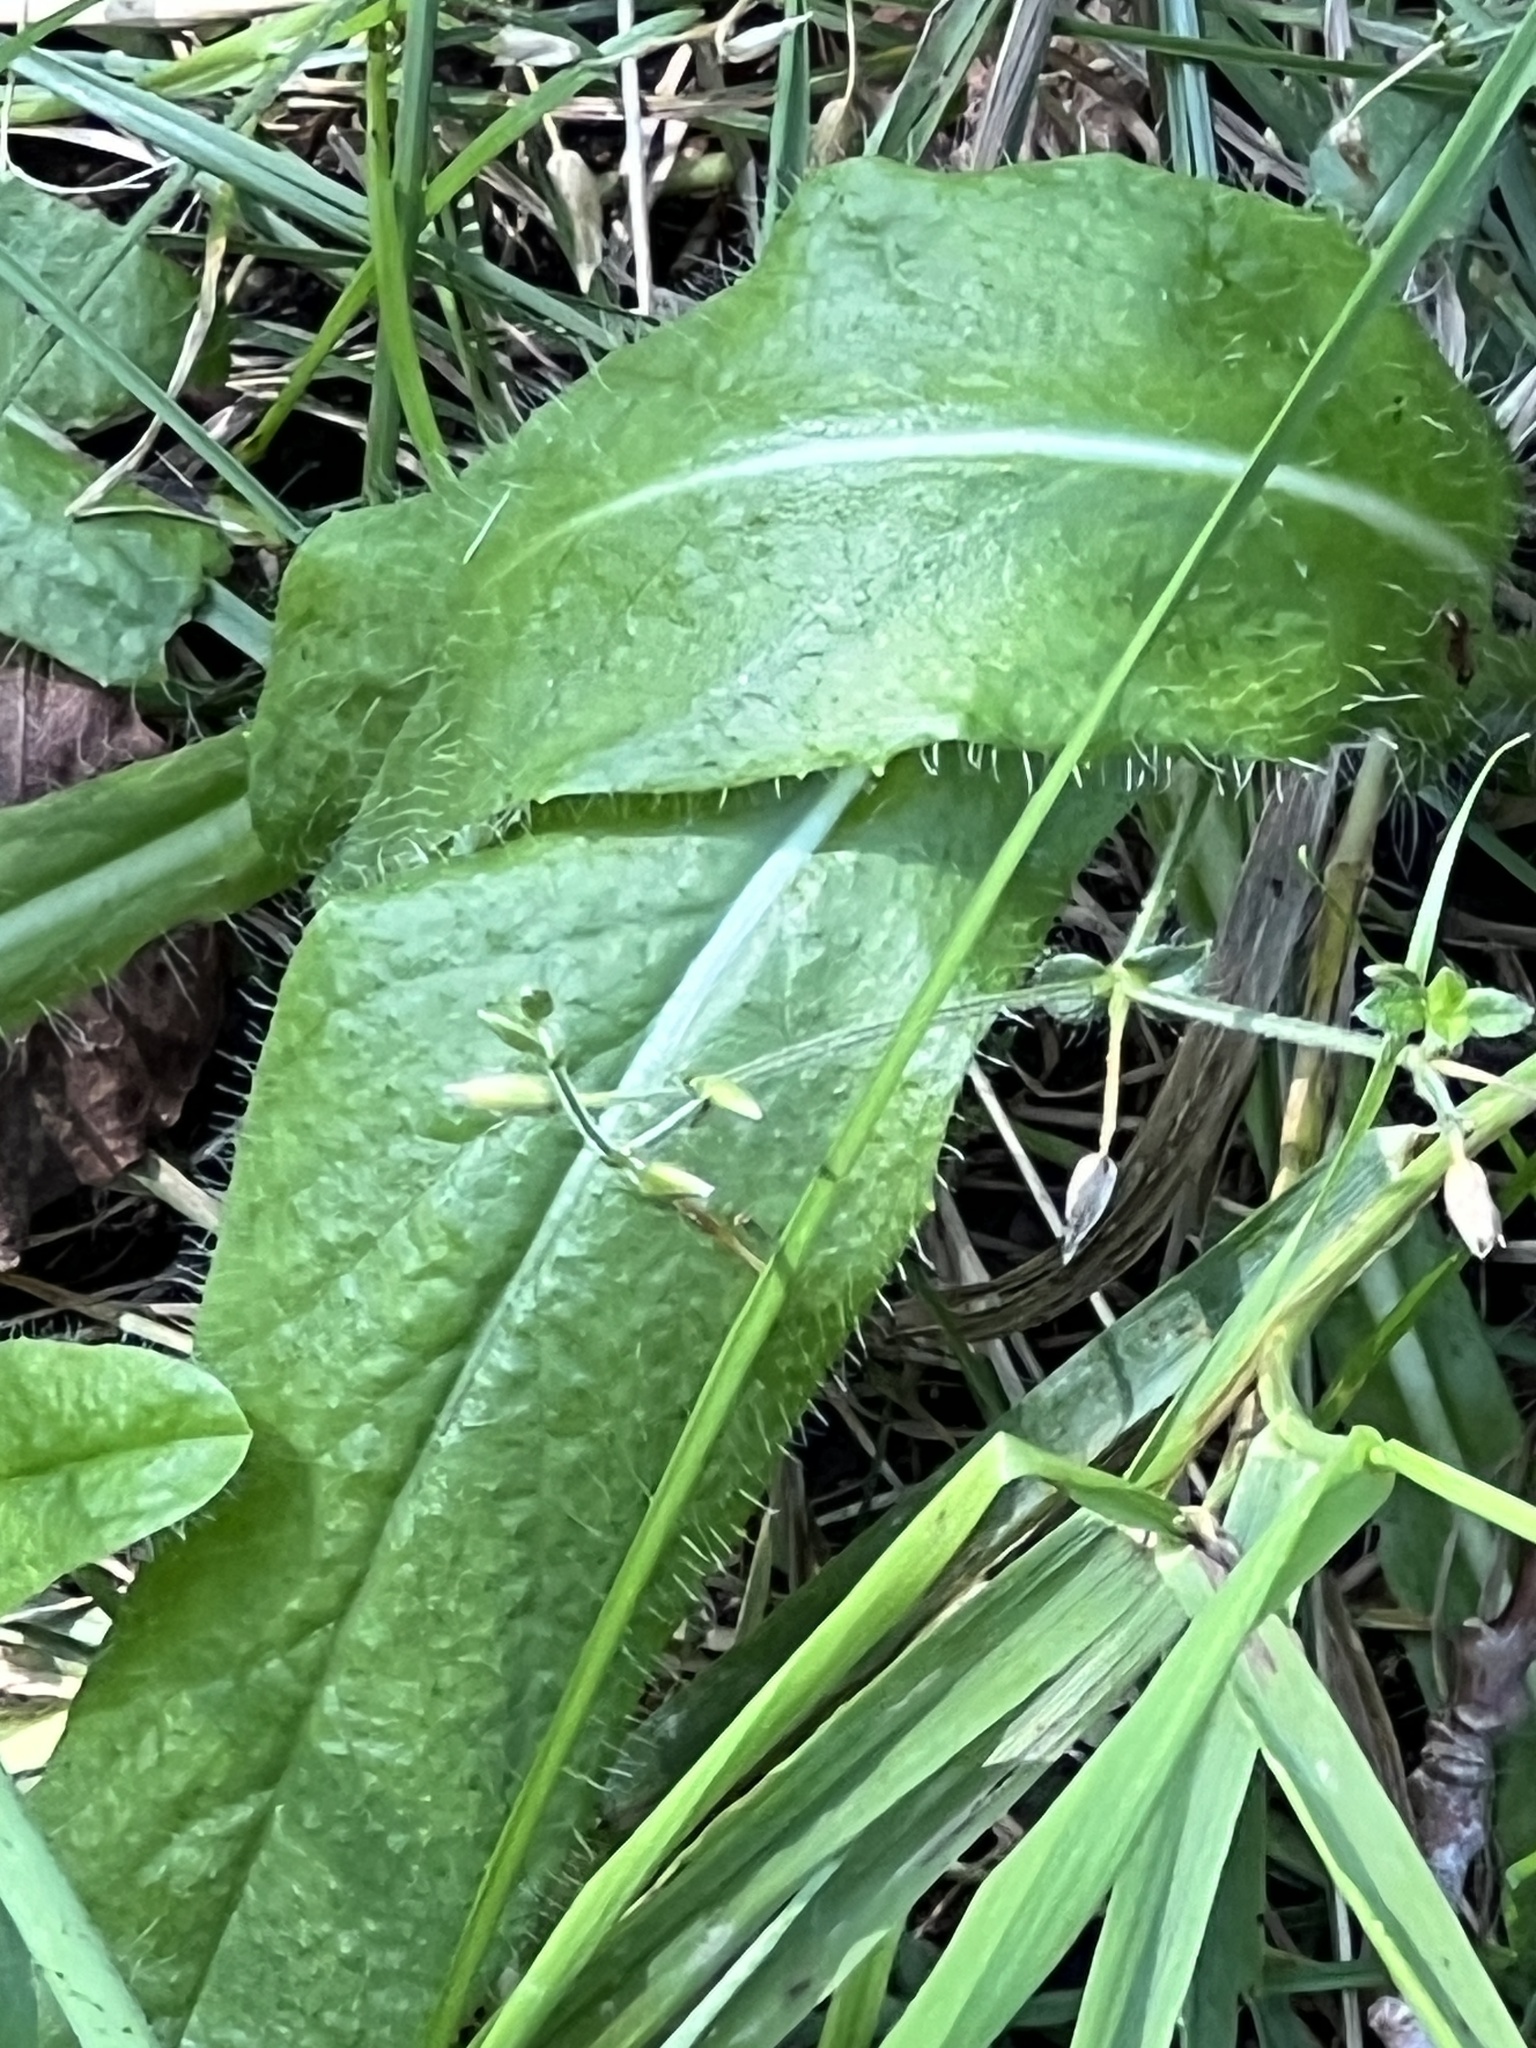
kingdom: Plantae
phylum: Tracheophyta
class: Magnoliopsida
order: Asterales
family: Asteraceae
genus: Pilosella
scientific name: Pilosella aurantiaca
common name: Fox-and-cubs
